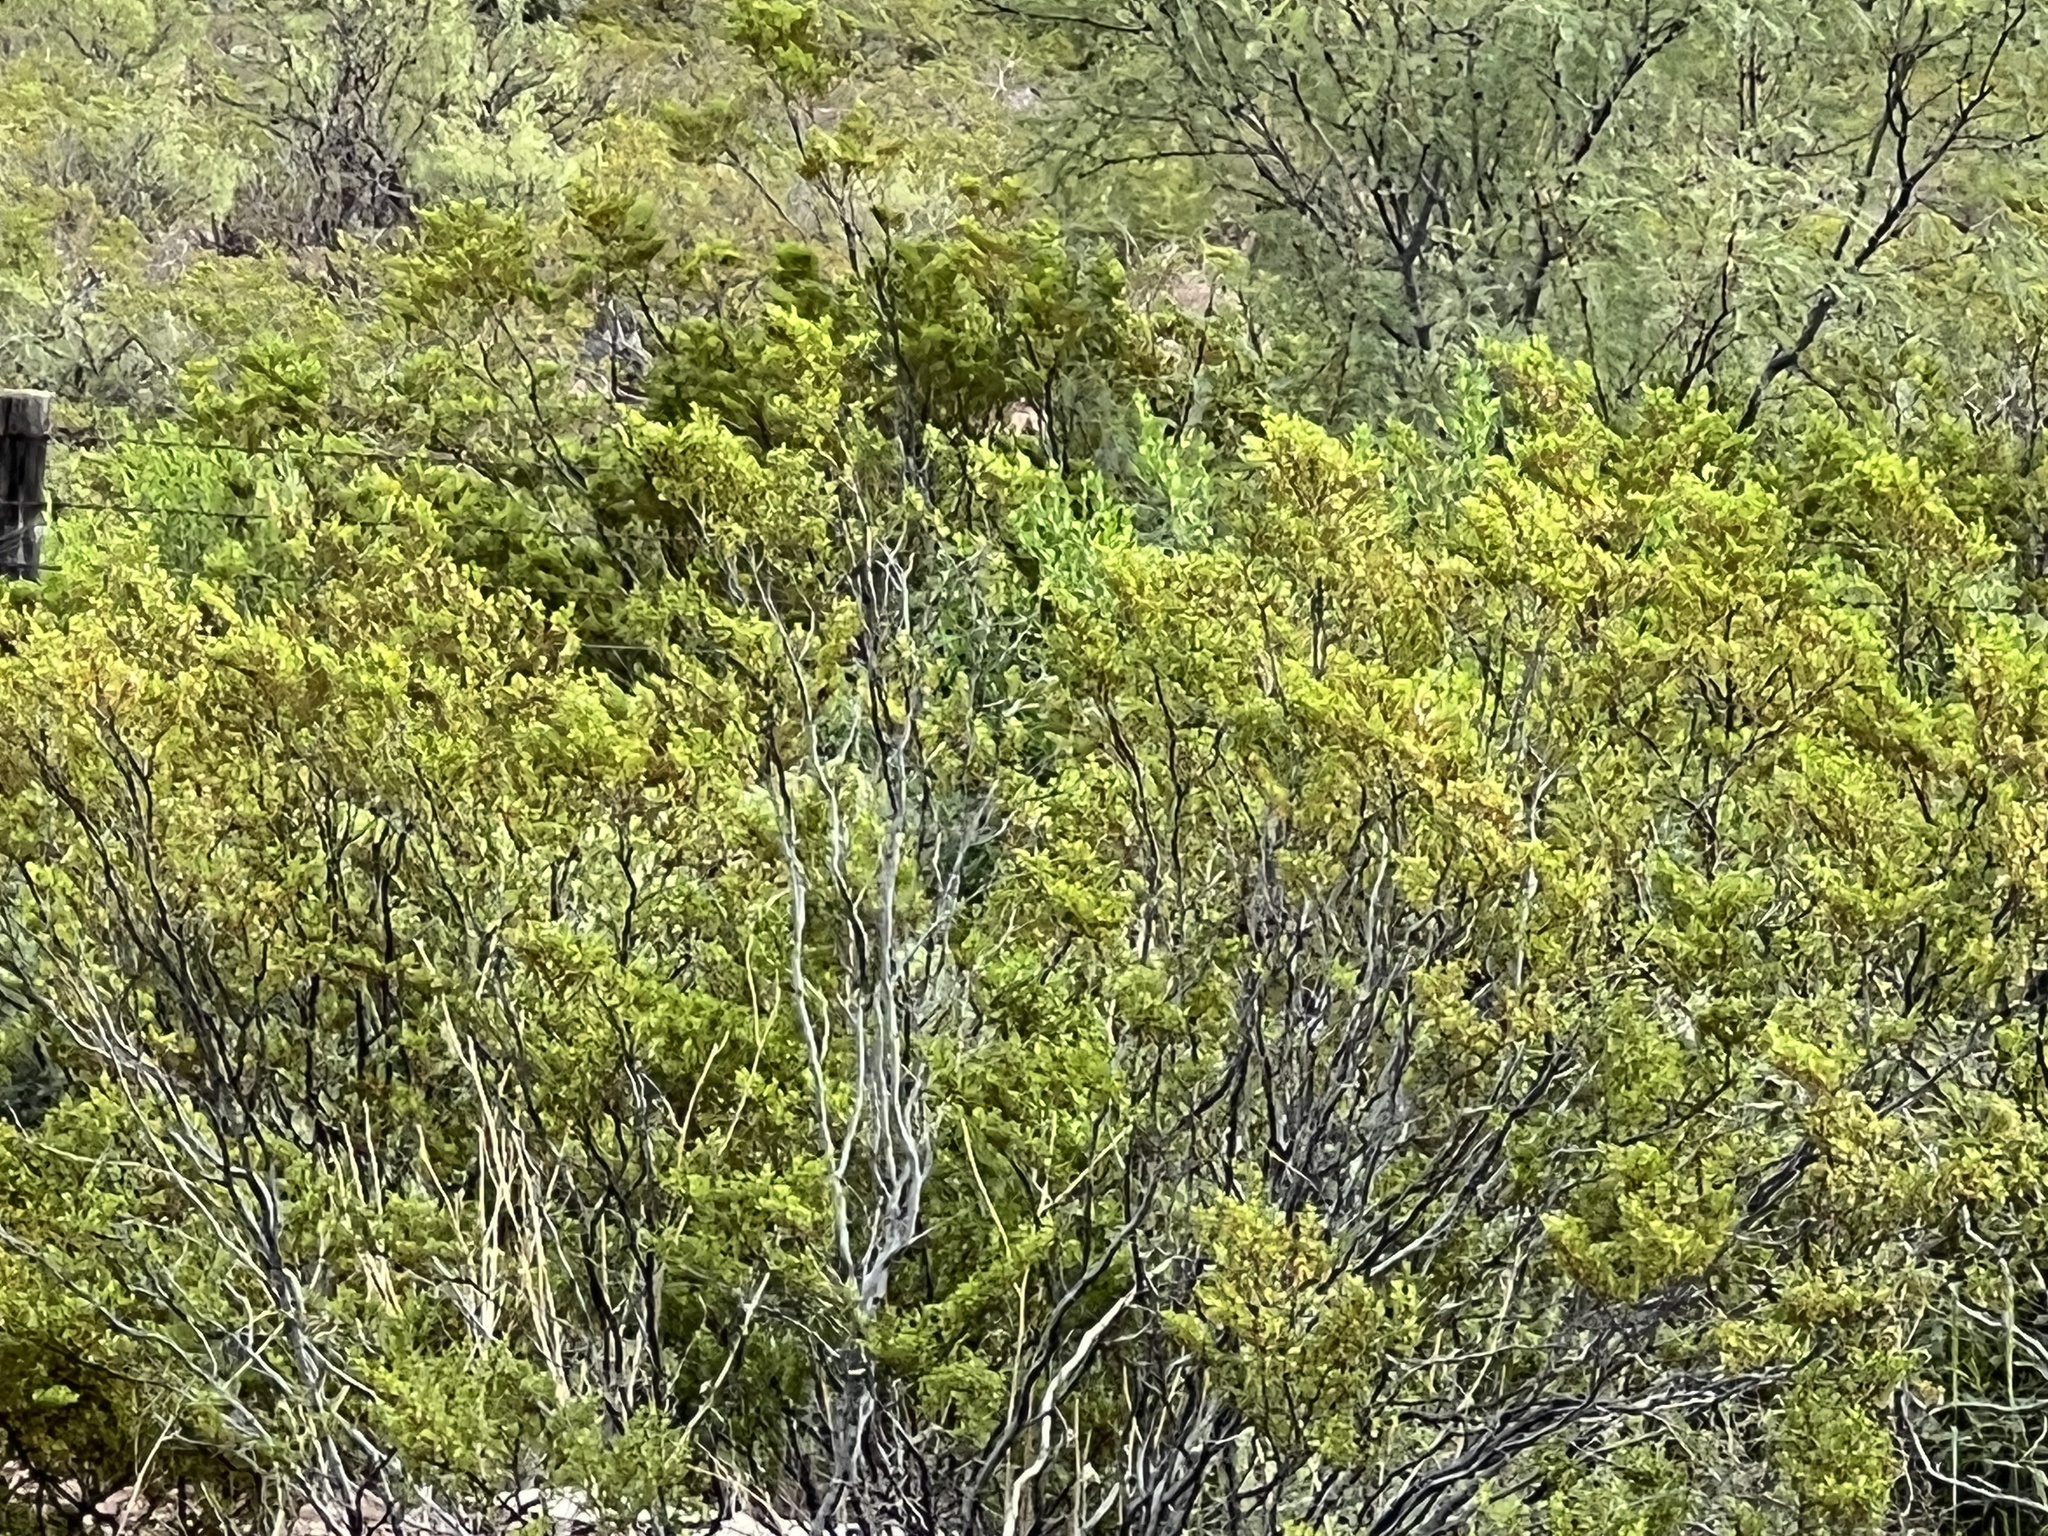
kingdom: Plantae
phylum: Tracheophyta
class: Magnoliopsida
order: Zygophyllales
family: Zygophyllaceae
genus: Larrea
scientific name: Larrea tridentata
